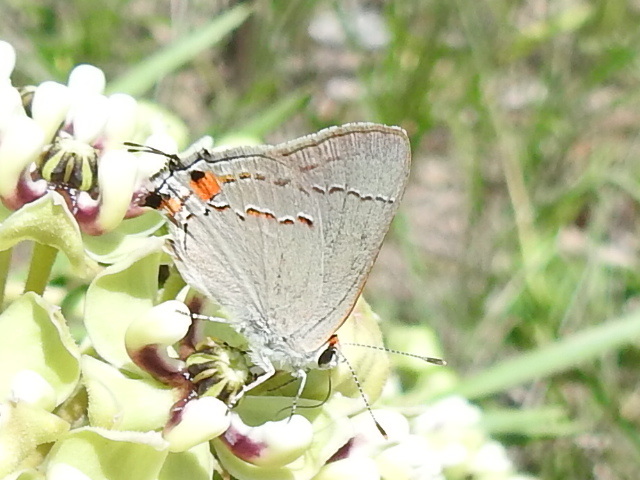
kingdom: Animalia
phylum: Arthropoda
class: Insecta
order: Lepidoptera
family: Lycaenidae
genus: Strymon
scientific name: Strymon melinus
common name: Gray hairstreak
